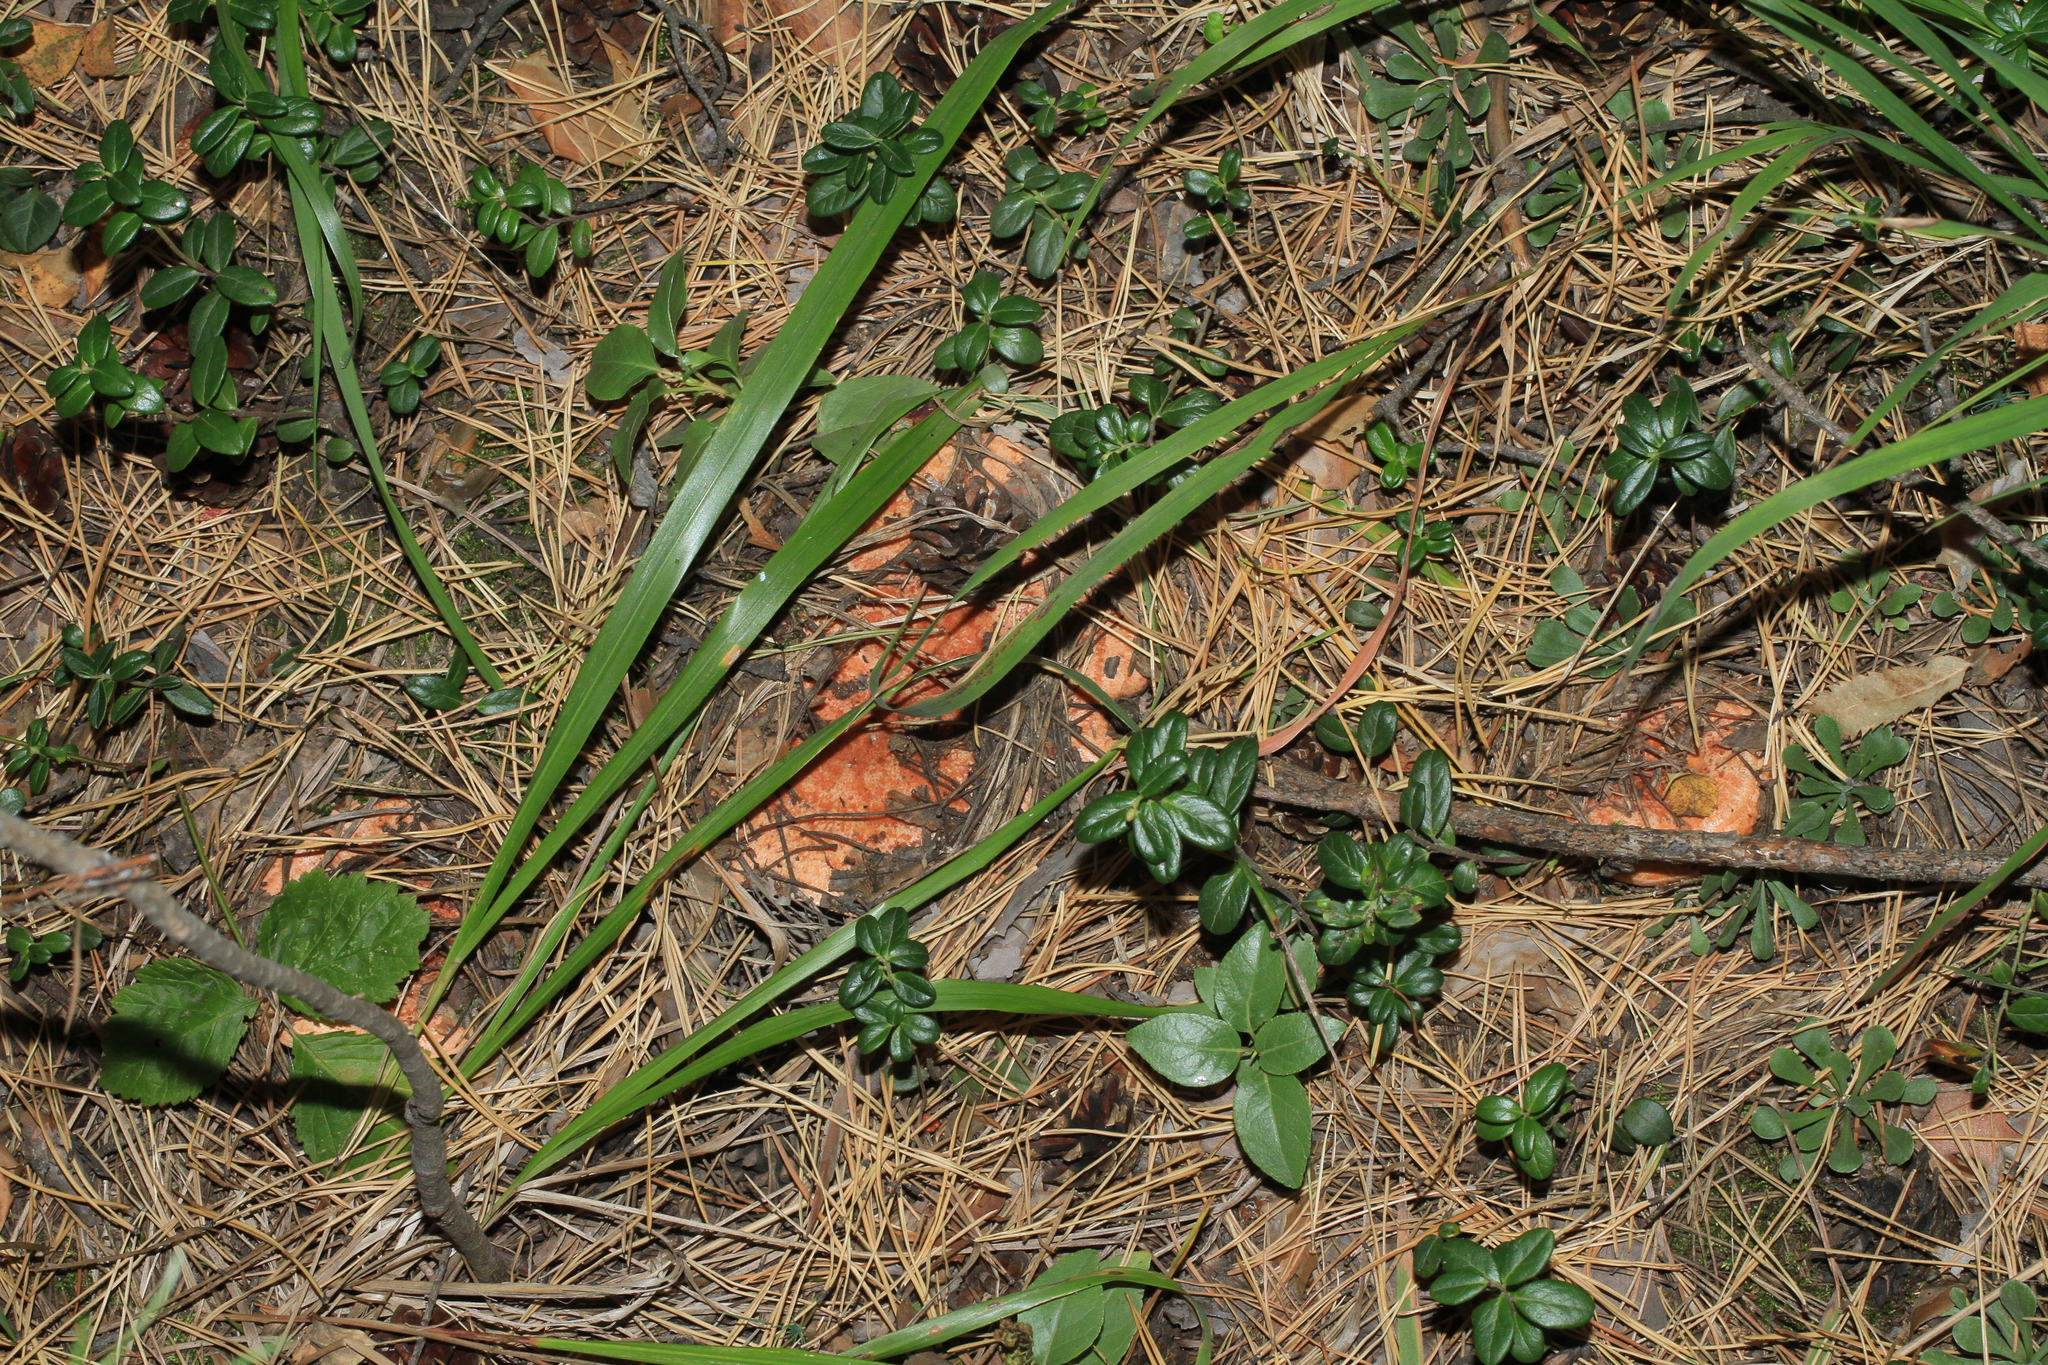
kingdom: Fungi
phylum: Basidiomycota
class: Agaricomycetes
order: Russulales
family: Russulaceae
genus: Lactarius
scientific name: Lactarius deliciosus
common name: Saffron milk-cap
